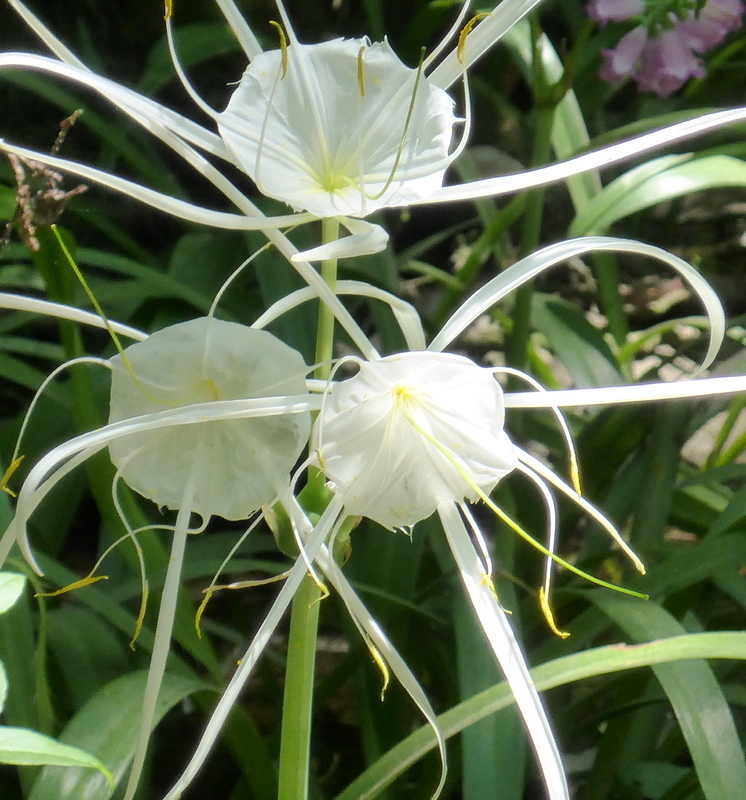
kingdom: Plantae
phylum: Tracheophyta
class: Liliopsida
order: Asparagales
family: Amaryllidaceae
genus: Hymenocallis
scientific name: Hymenocallis franklinensis
